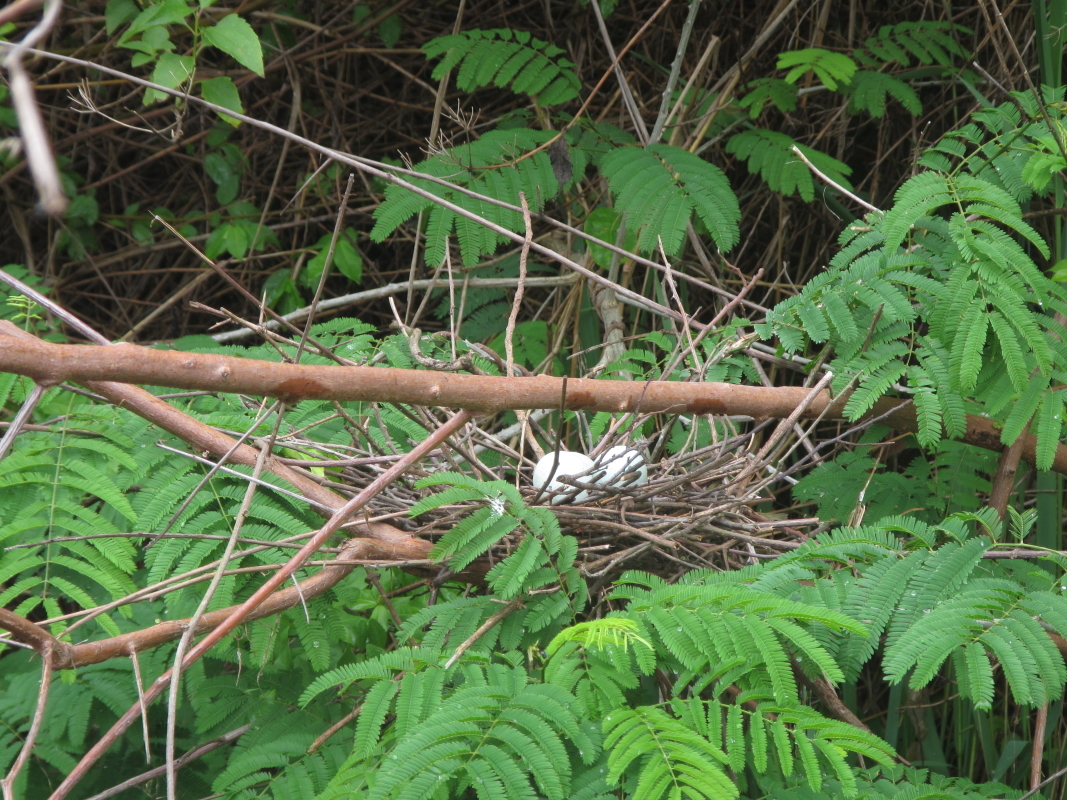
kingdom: Animalia
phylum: Chordata
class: Aves
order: Pelecaniformes
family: Ardeidae
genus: Butorides
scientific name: Butorides striata
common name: Striated heron
